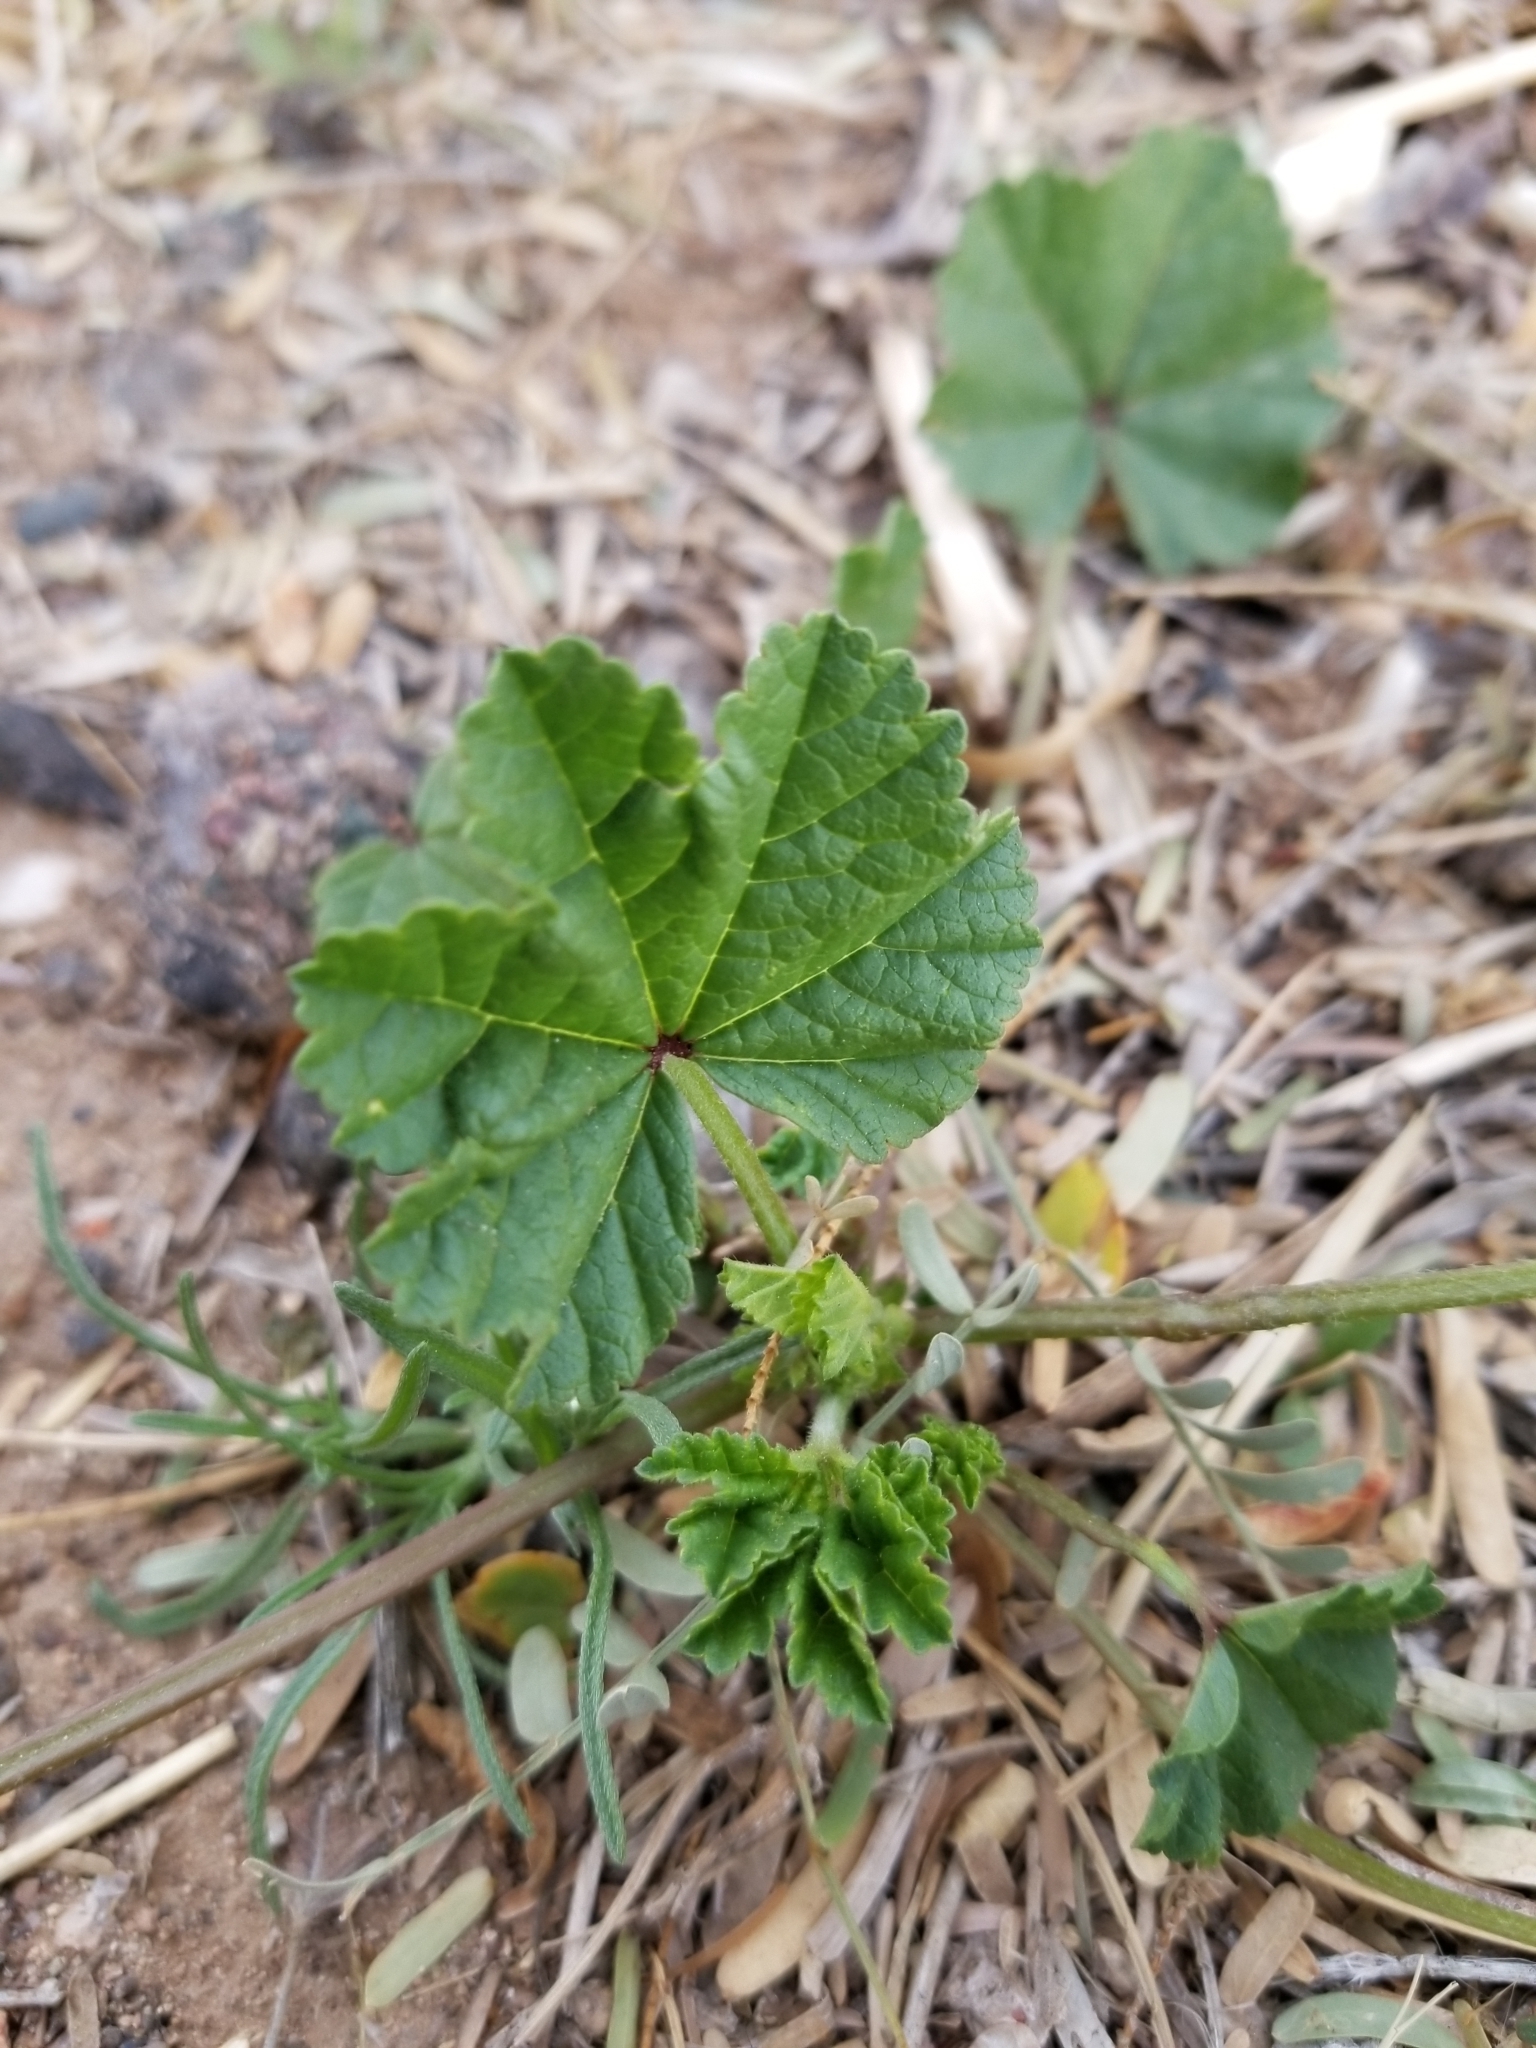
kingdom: Plantae
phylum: Tracheophyta
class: Magnoliopsida
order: Malvales
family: Malvaceae
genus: Malva
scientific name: Malva parviflora
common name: Least mallow
